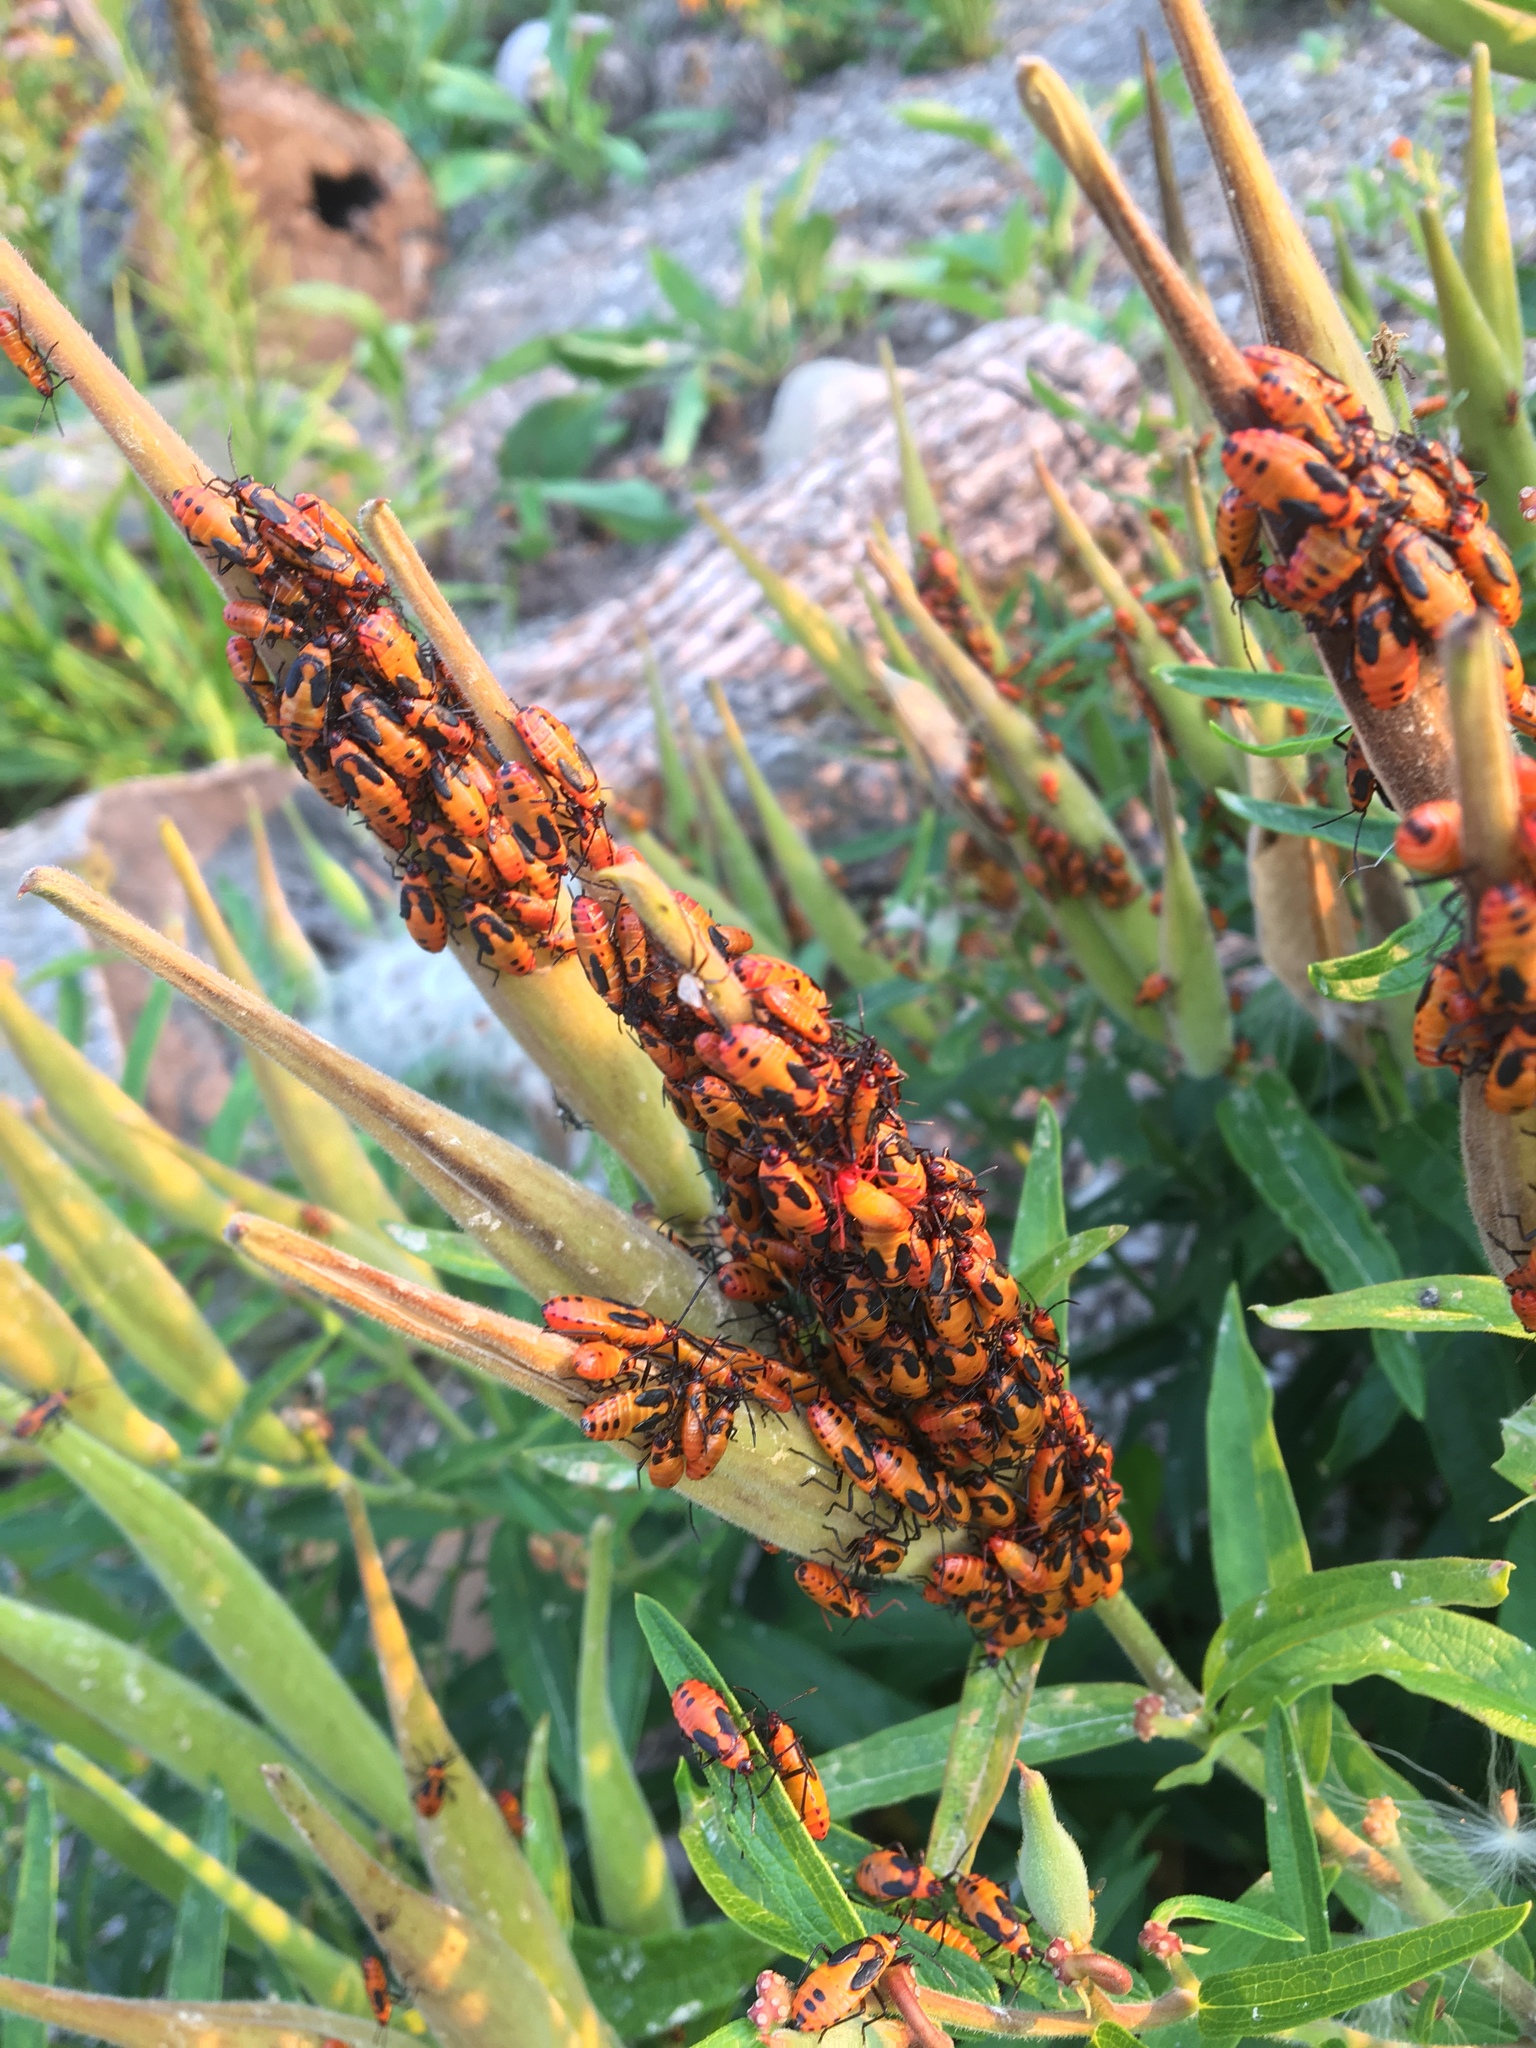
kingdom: Animalia
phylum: Arthropoda
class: Insecta
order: Hemiptera
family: Lygaeidae
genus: Oncopeltus
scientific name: Oncopeltus fasciatus
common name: Large milkweed bug
